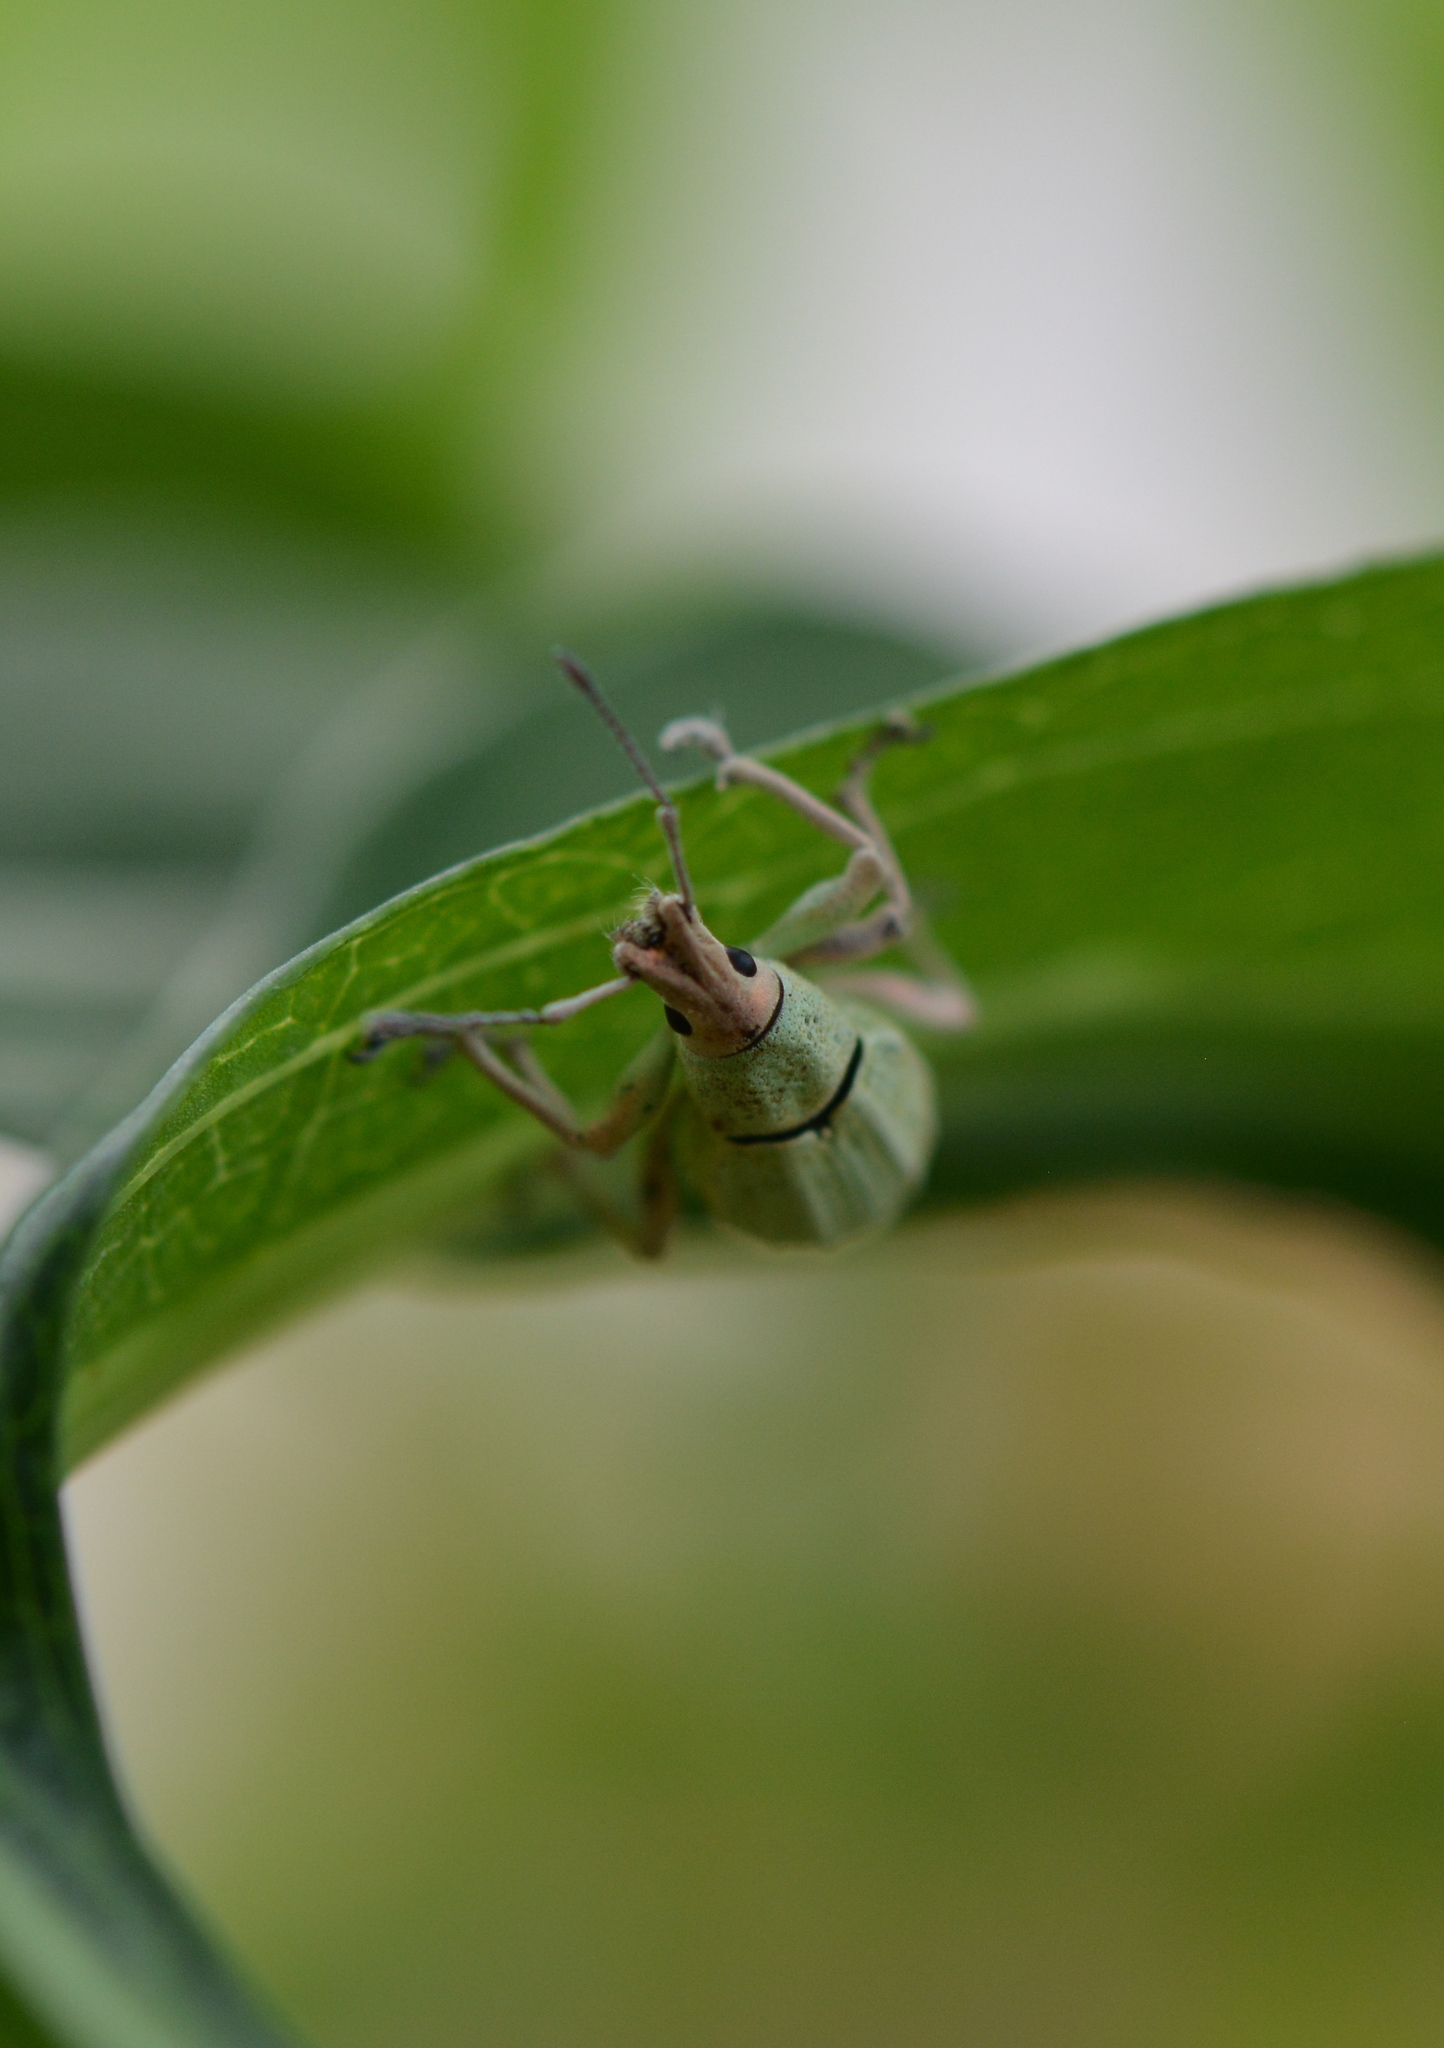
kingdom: Animalia
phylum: Arthropoda
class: Insecta
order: Coleoptera
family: Curculionidae
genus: Compsus
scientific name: Compsus auricephalus
